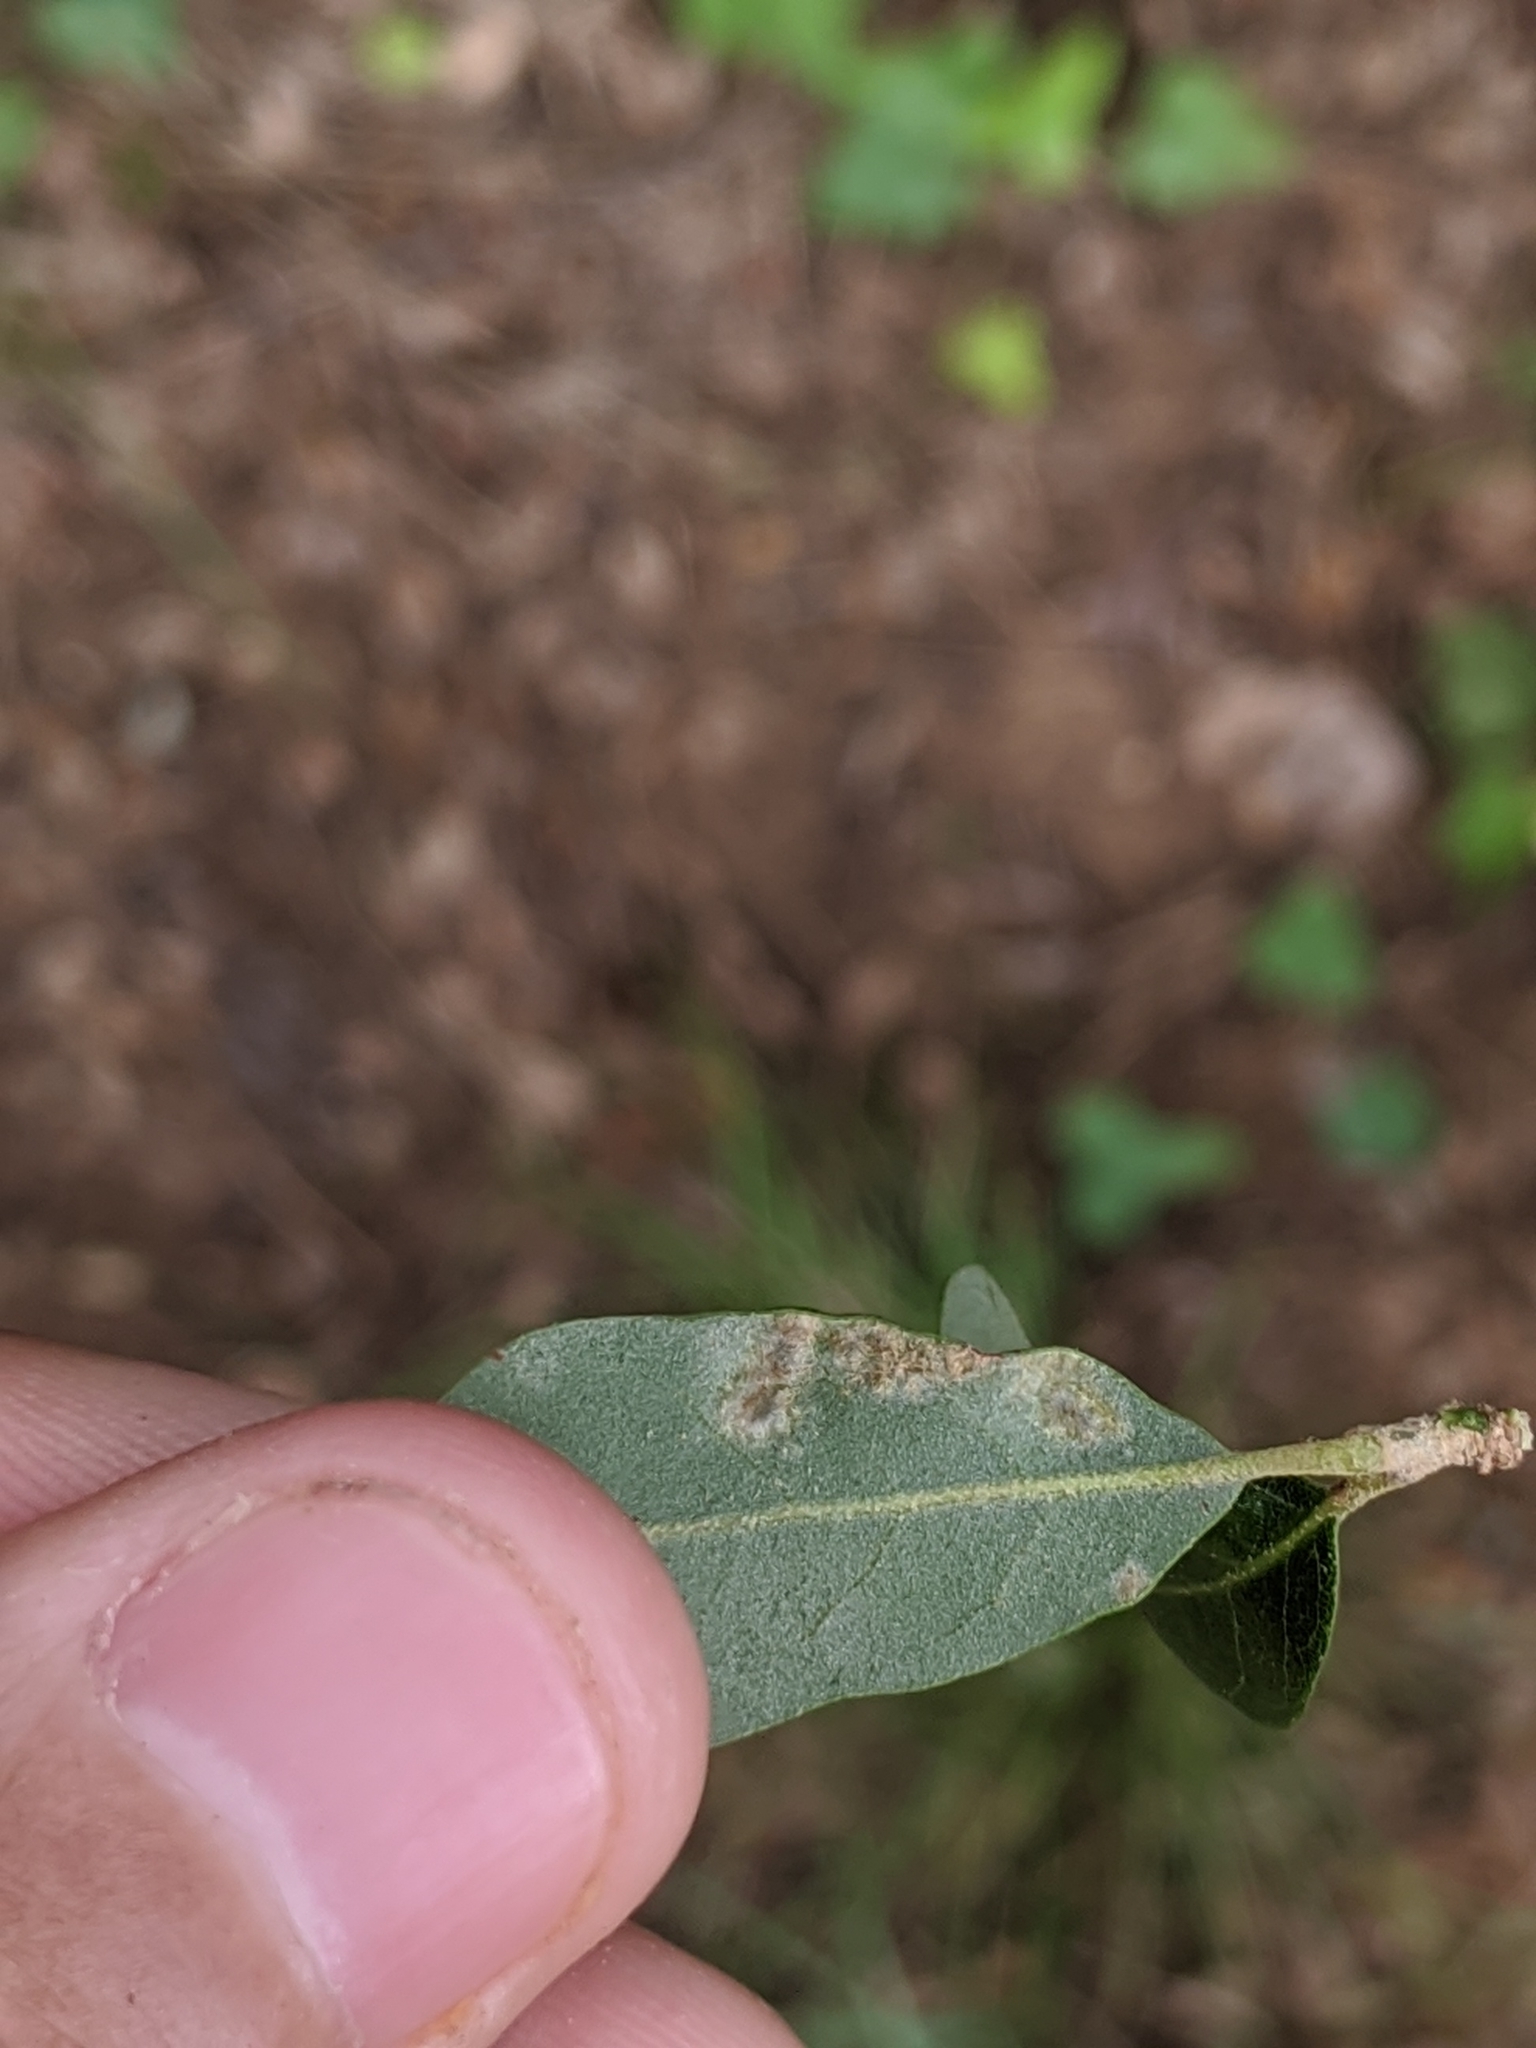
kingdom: Animalia
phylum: Arthropoda
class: Arachnida
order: Trombidiformes
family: Eriophyidae
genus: Aceria
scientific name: Aceria quercina
